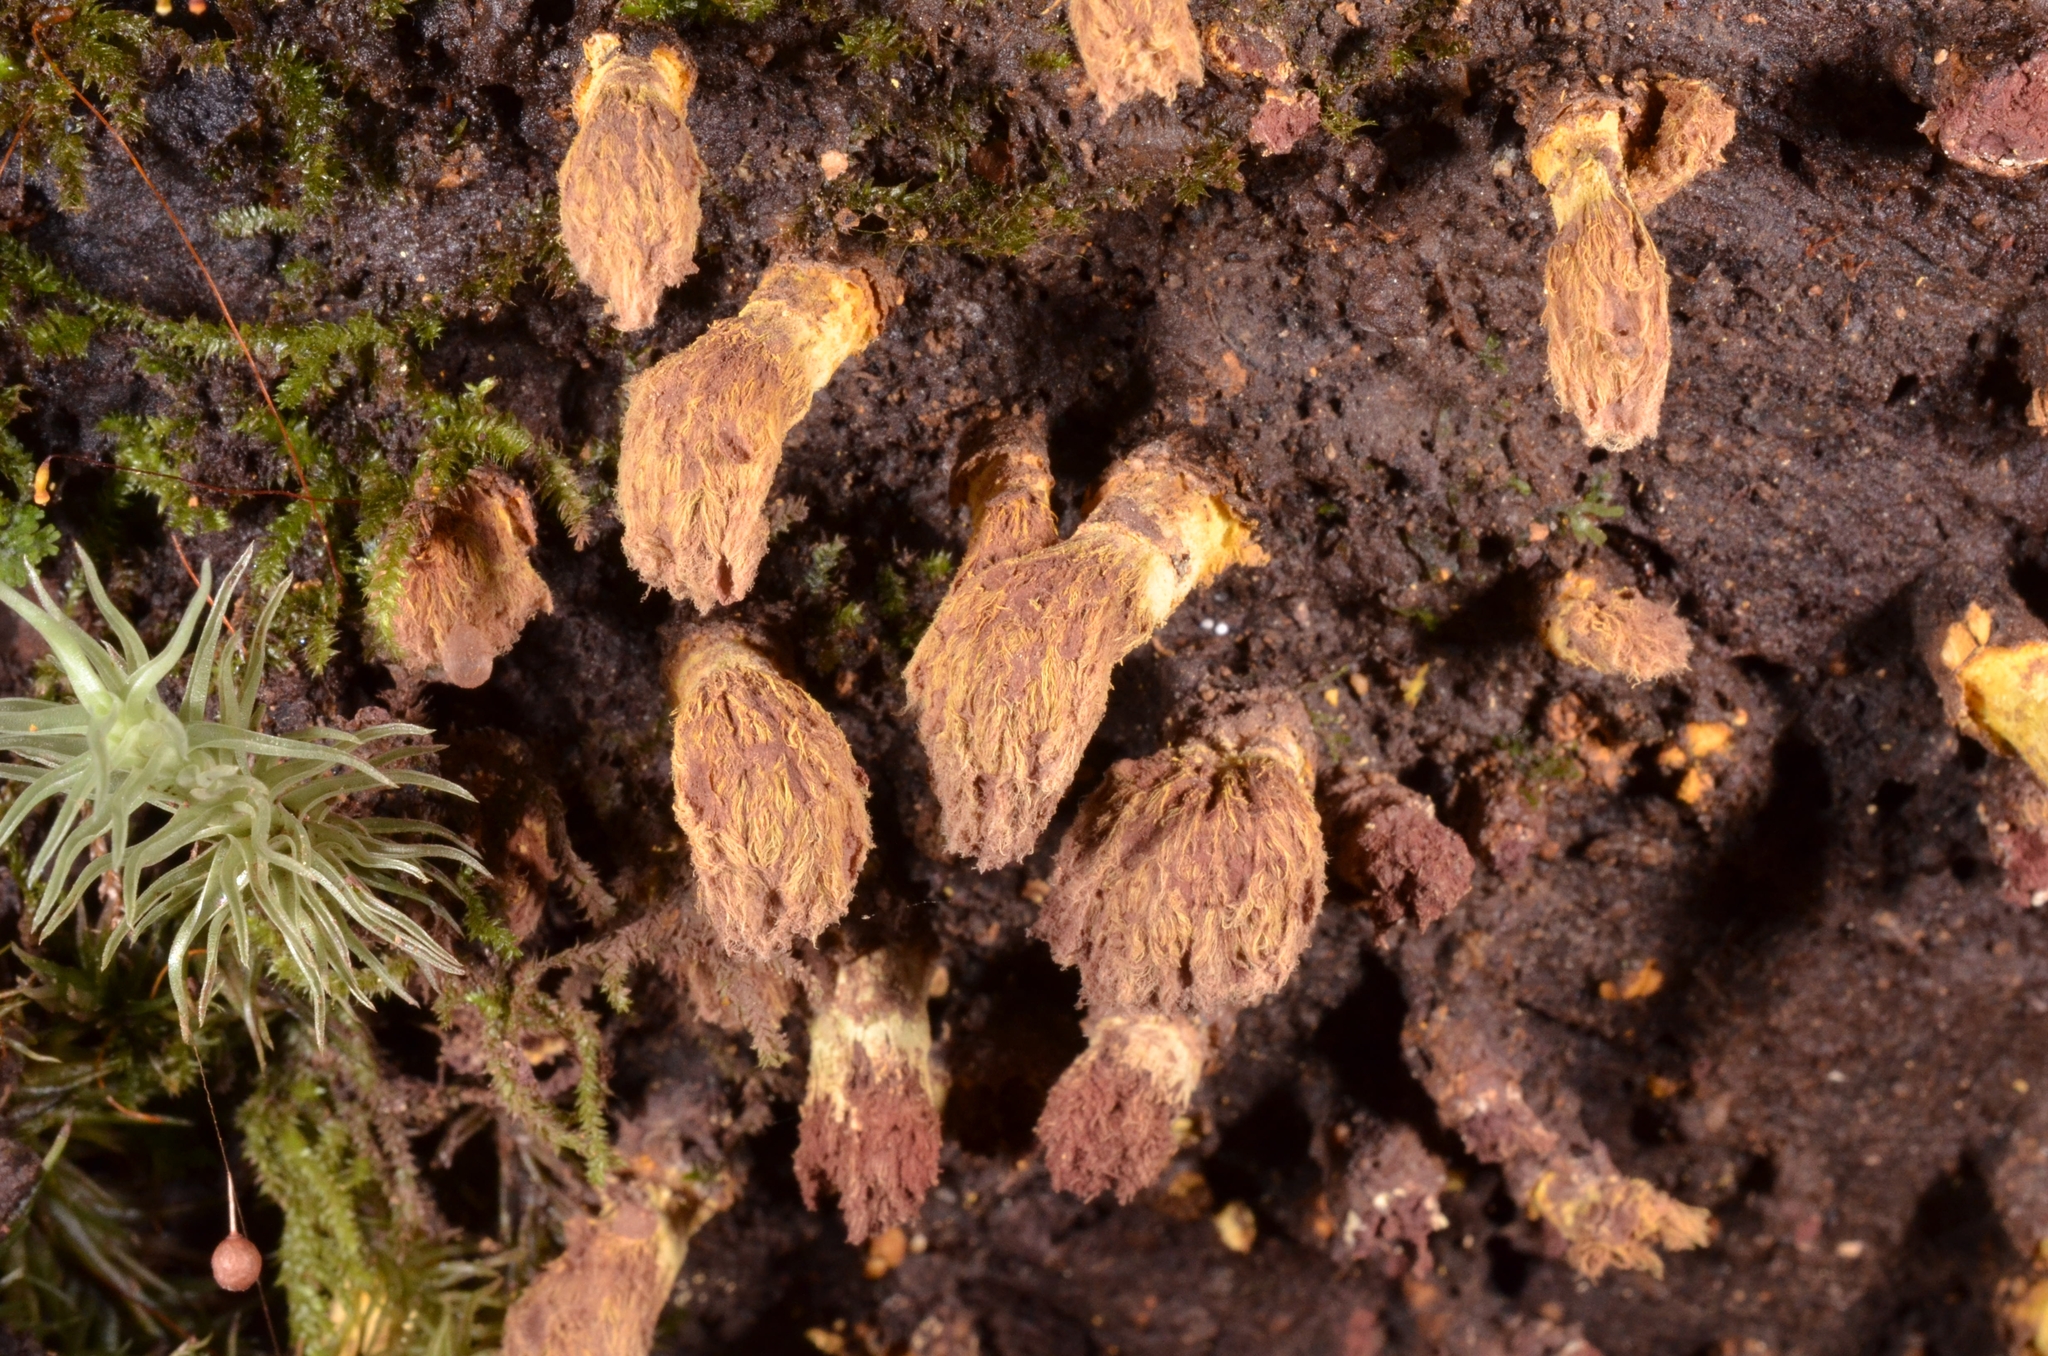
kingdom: Fungi
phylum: Ascomycota
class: Eurotiomycetes
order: Eurotiales
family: Trichocomaceae
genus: Trichocoma
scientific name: Trichocoma paradoxa
